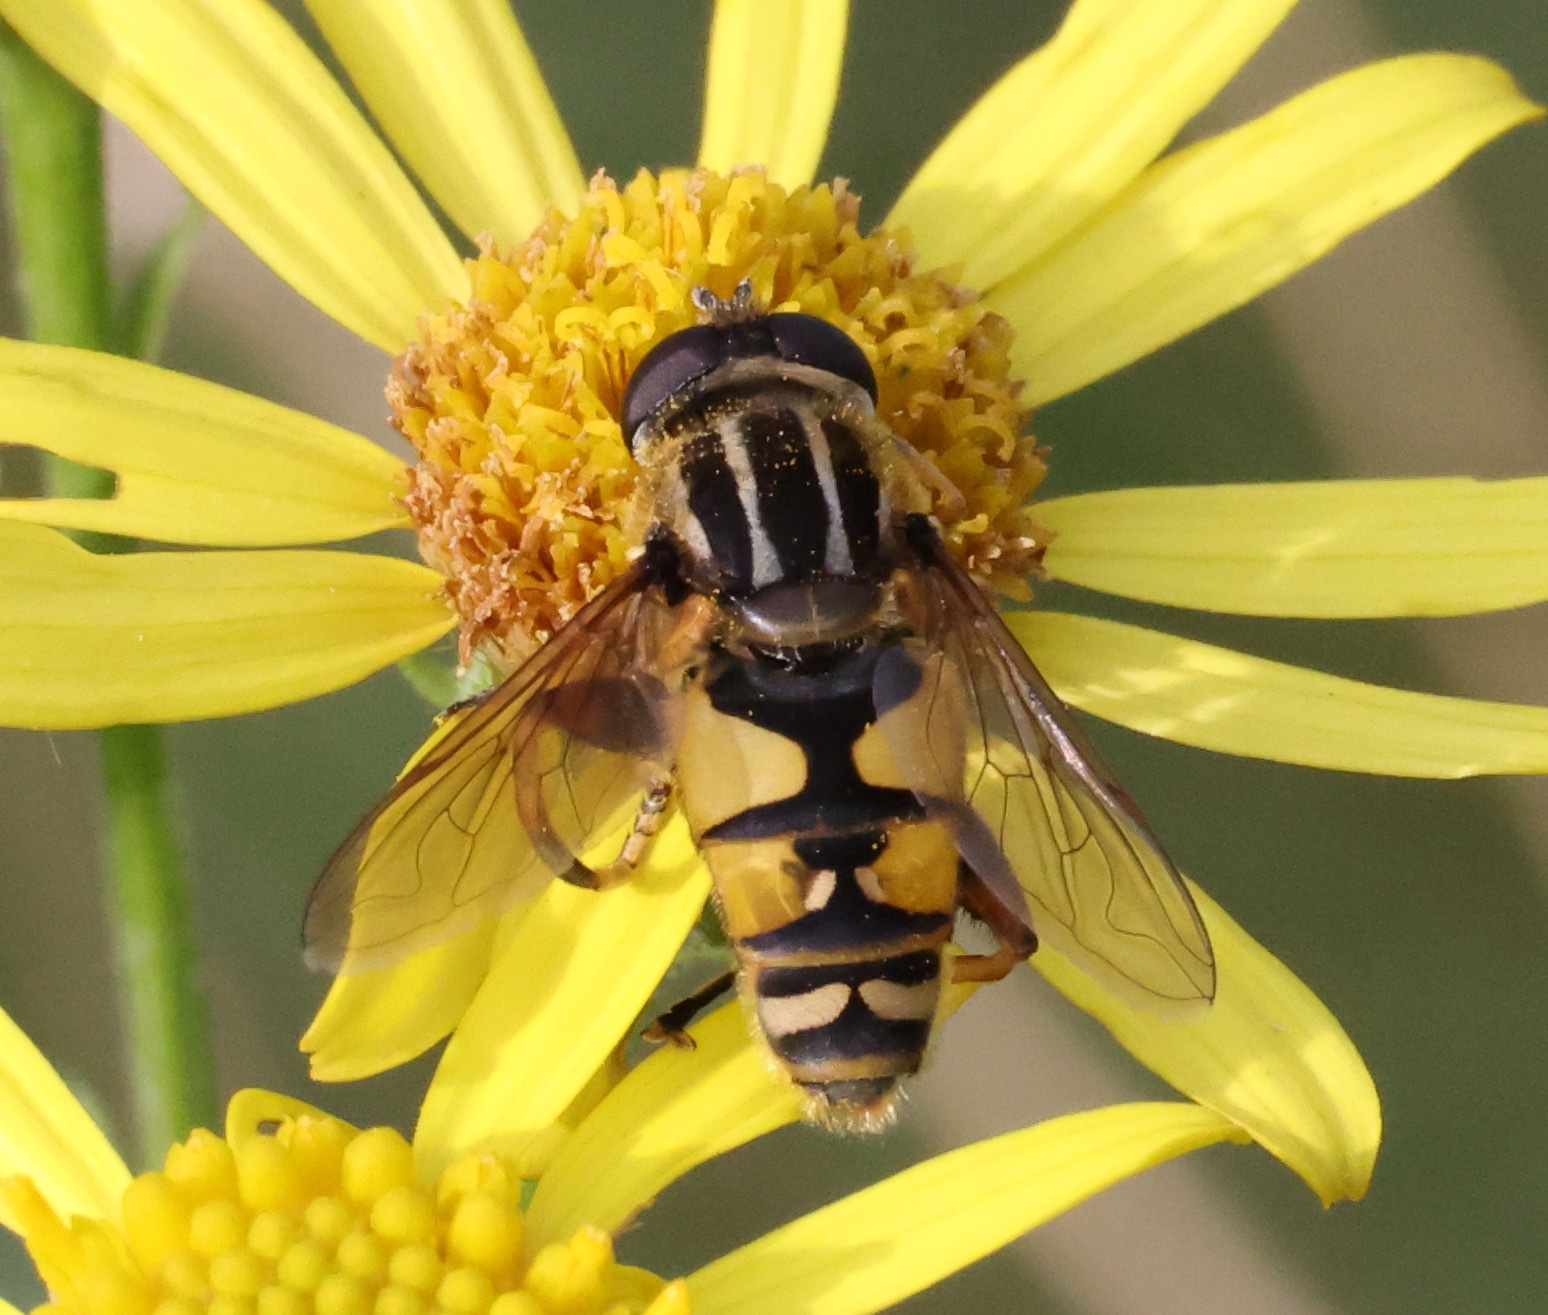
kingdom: Animalia
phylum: Arthropoda
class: Insecta
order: Diptera
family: Syrphidae
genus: Helophilus
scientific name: Helophilus pendulus
